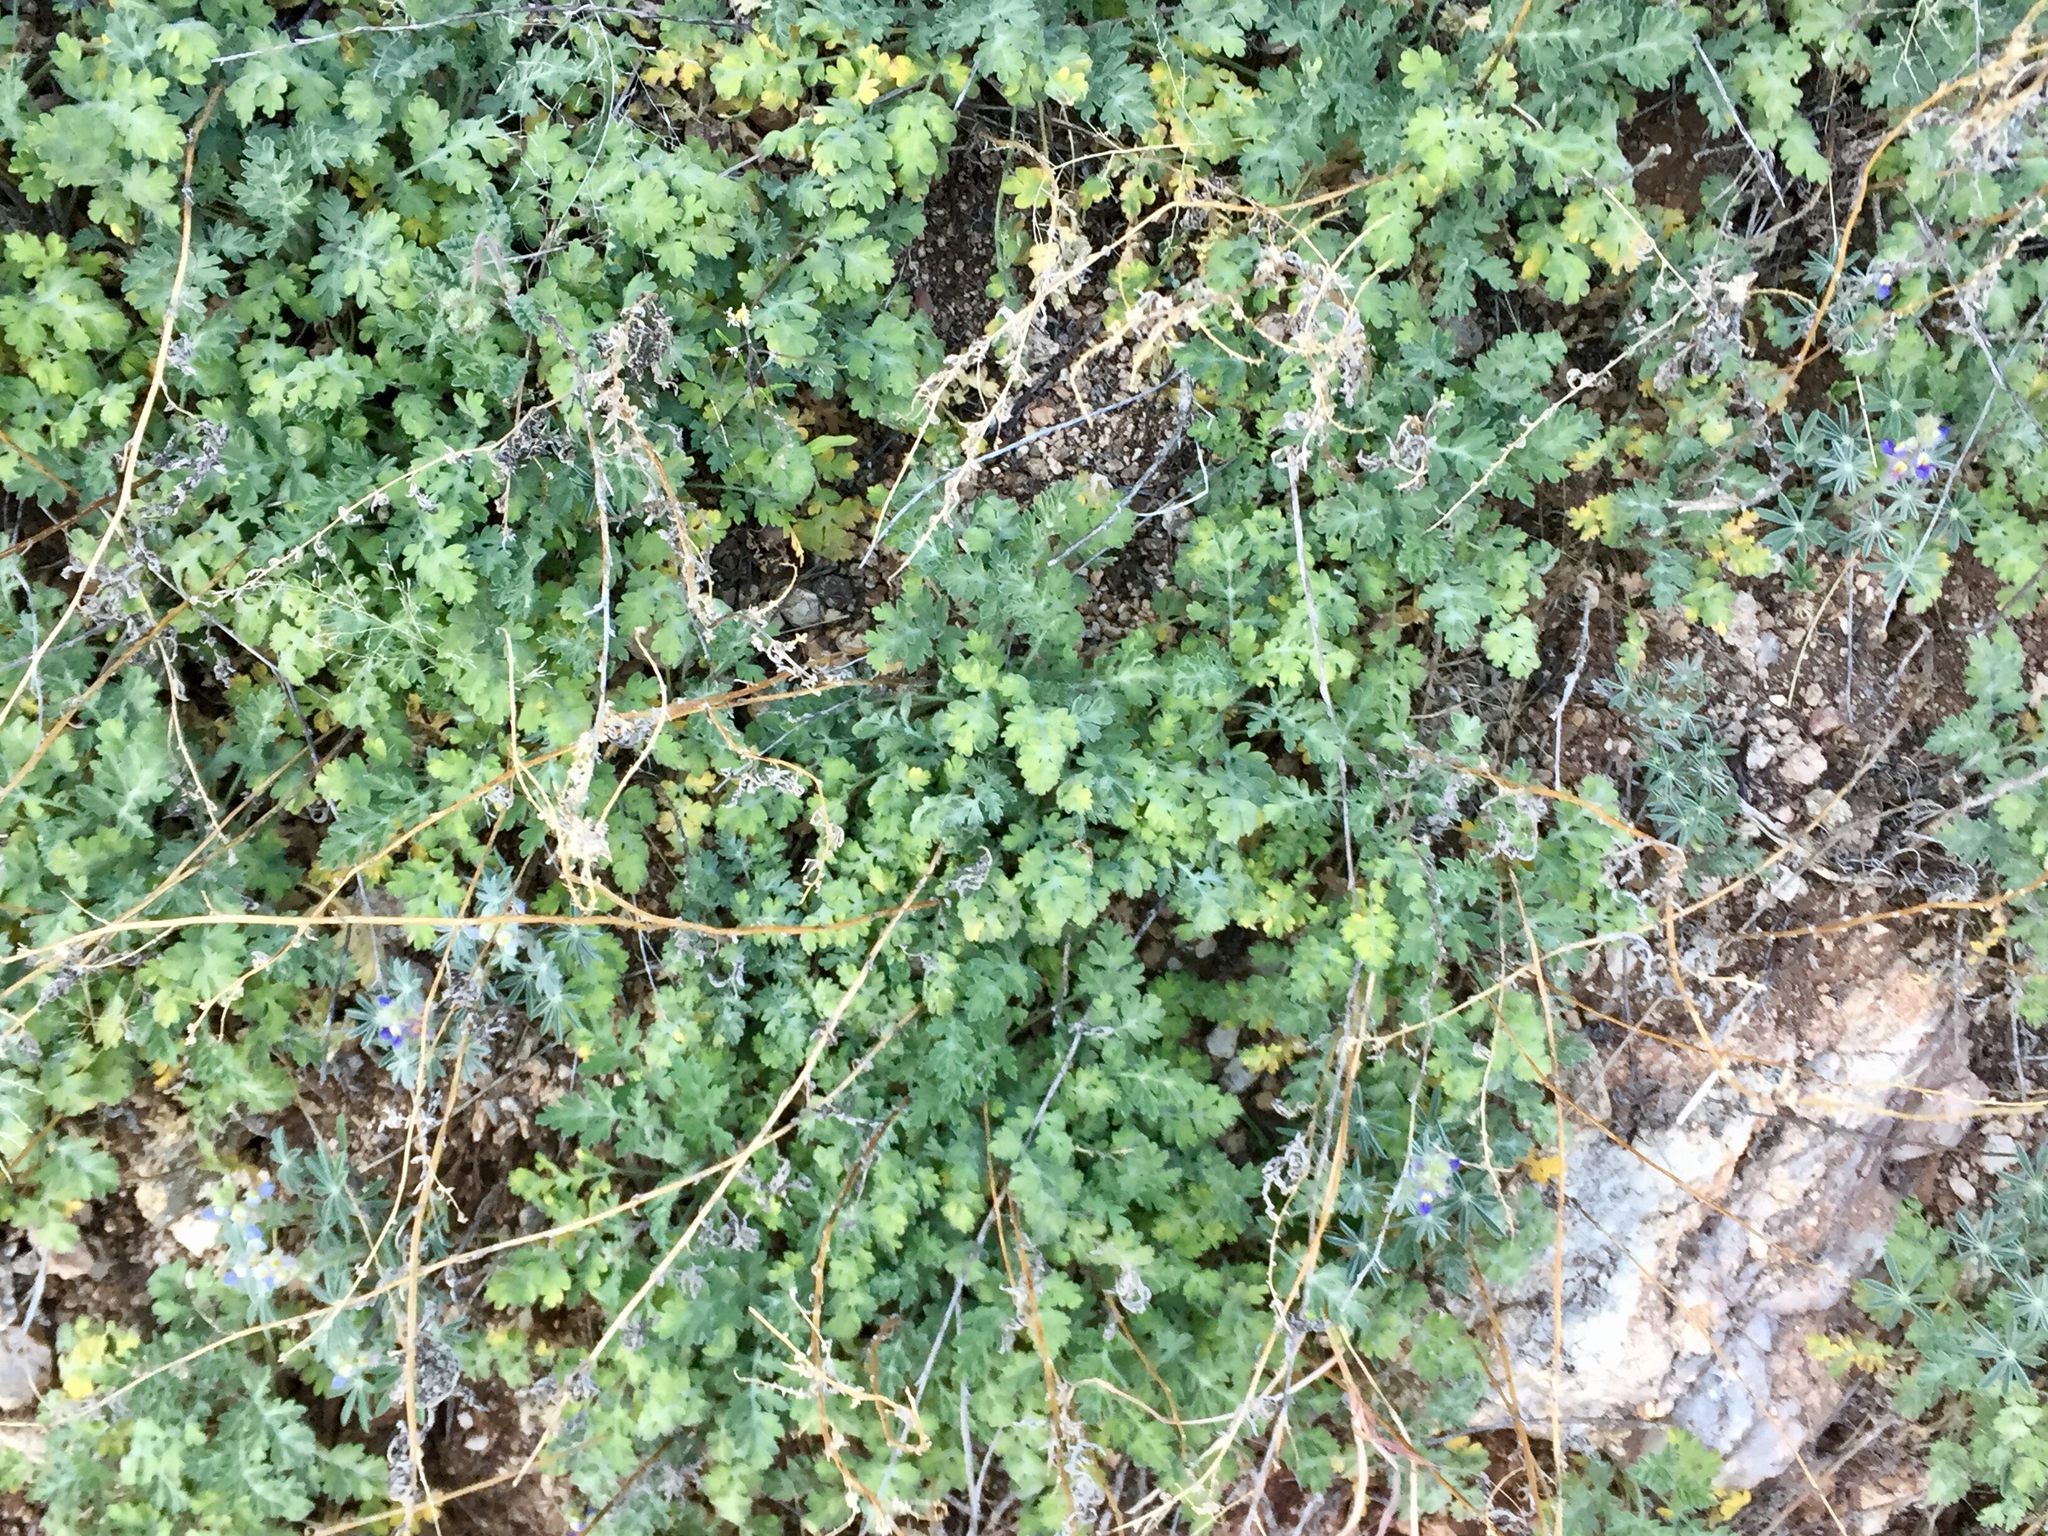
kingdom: Plantae
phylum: Tracheophyta
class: Magnoliopsida
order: Asterales
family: Asteraceae
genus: Ambrosia
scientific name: Ambrosia confertiflora
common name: Bur ragweed
